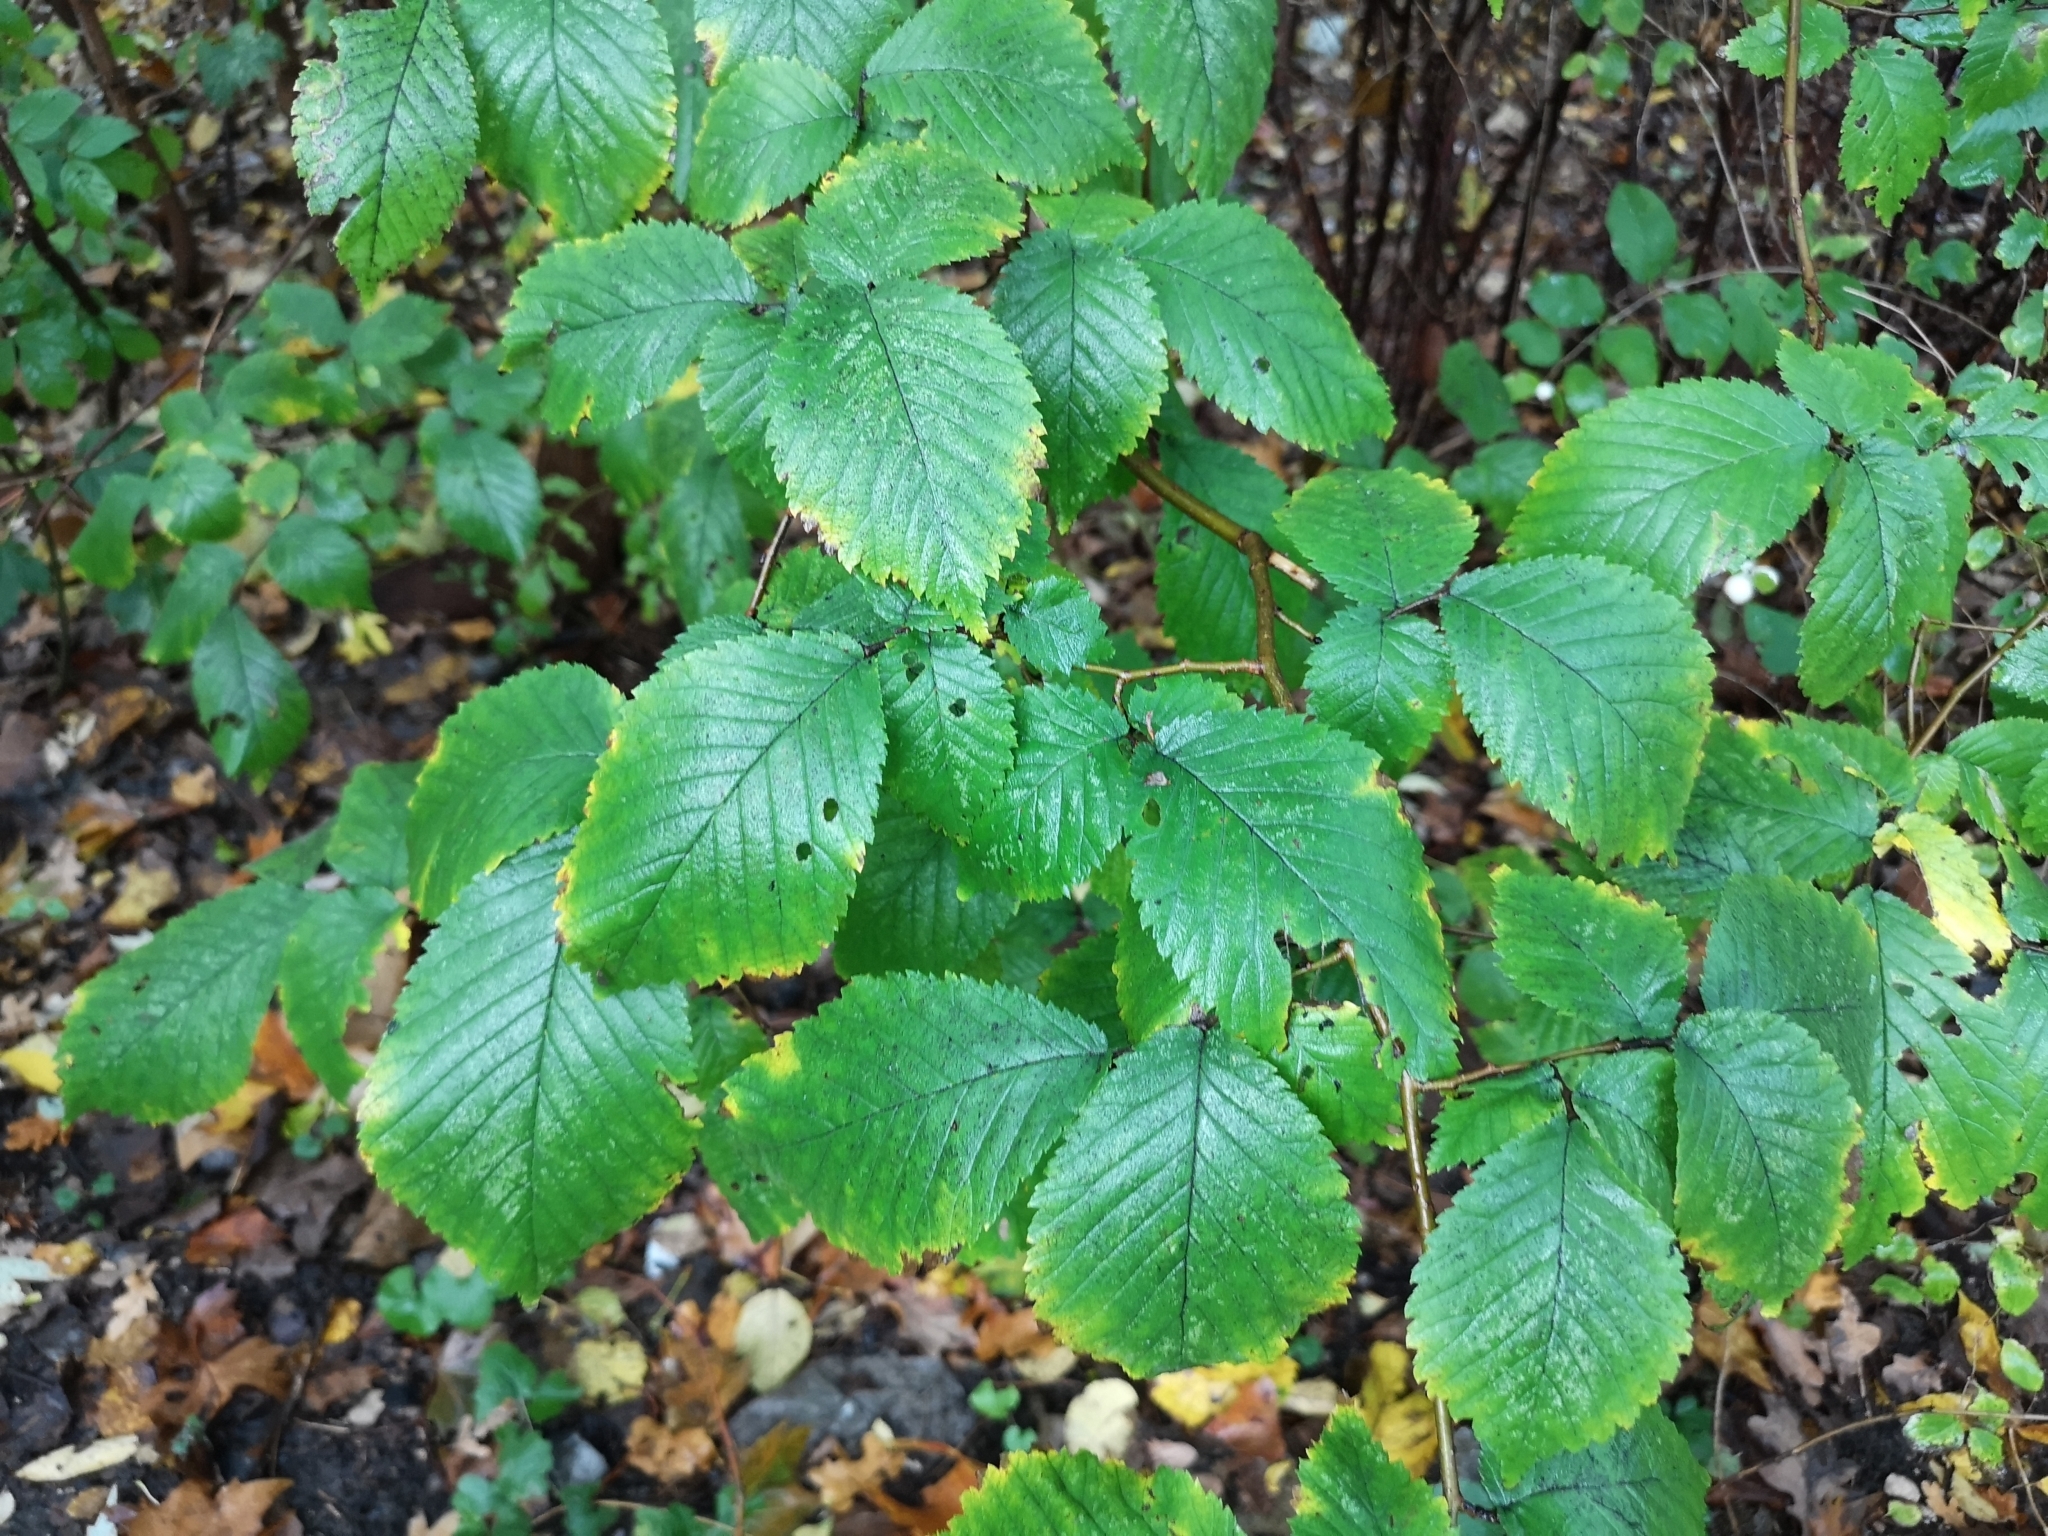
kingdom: Plantae
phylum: Tracheophyta
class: Magnoliopsida
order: Rosales
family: Ulmaceae
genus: Ulmus
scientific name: Ulmus glabra
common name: Wych elm
